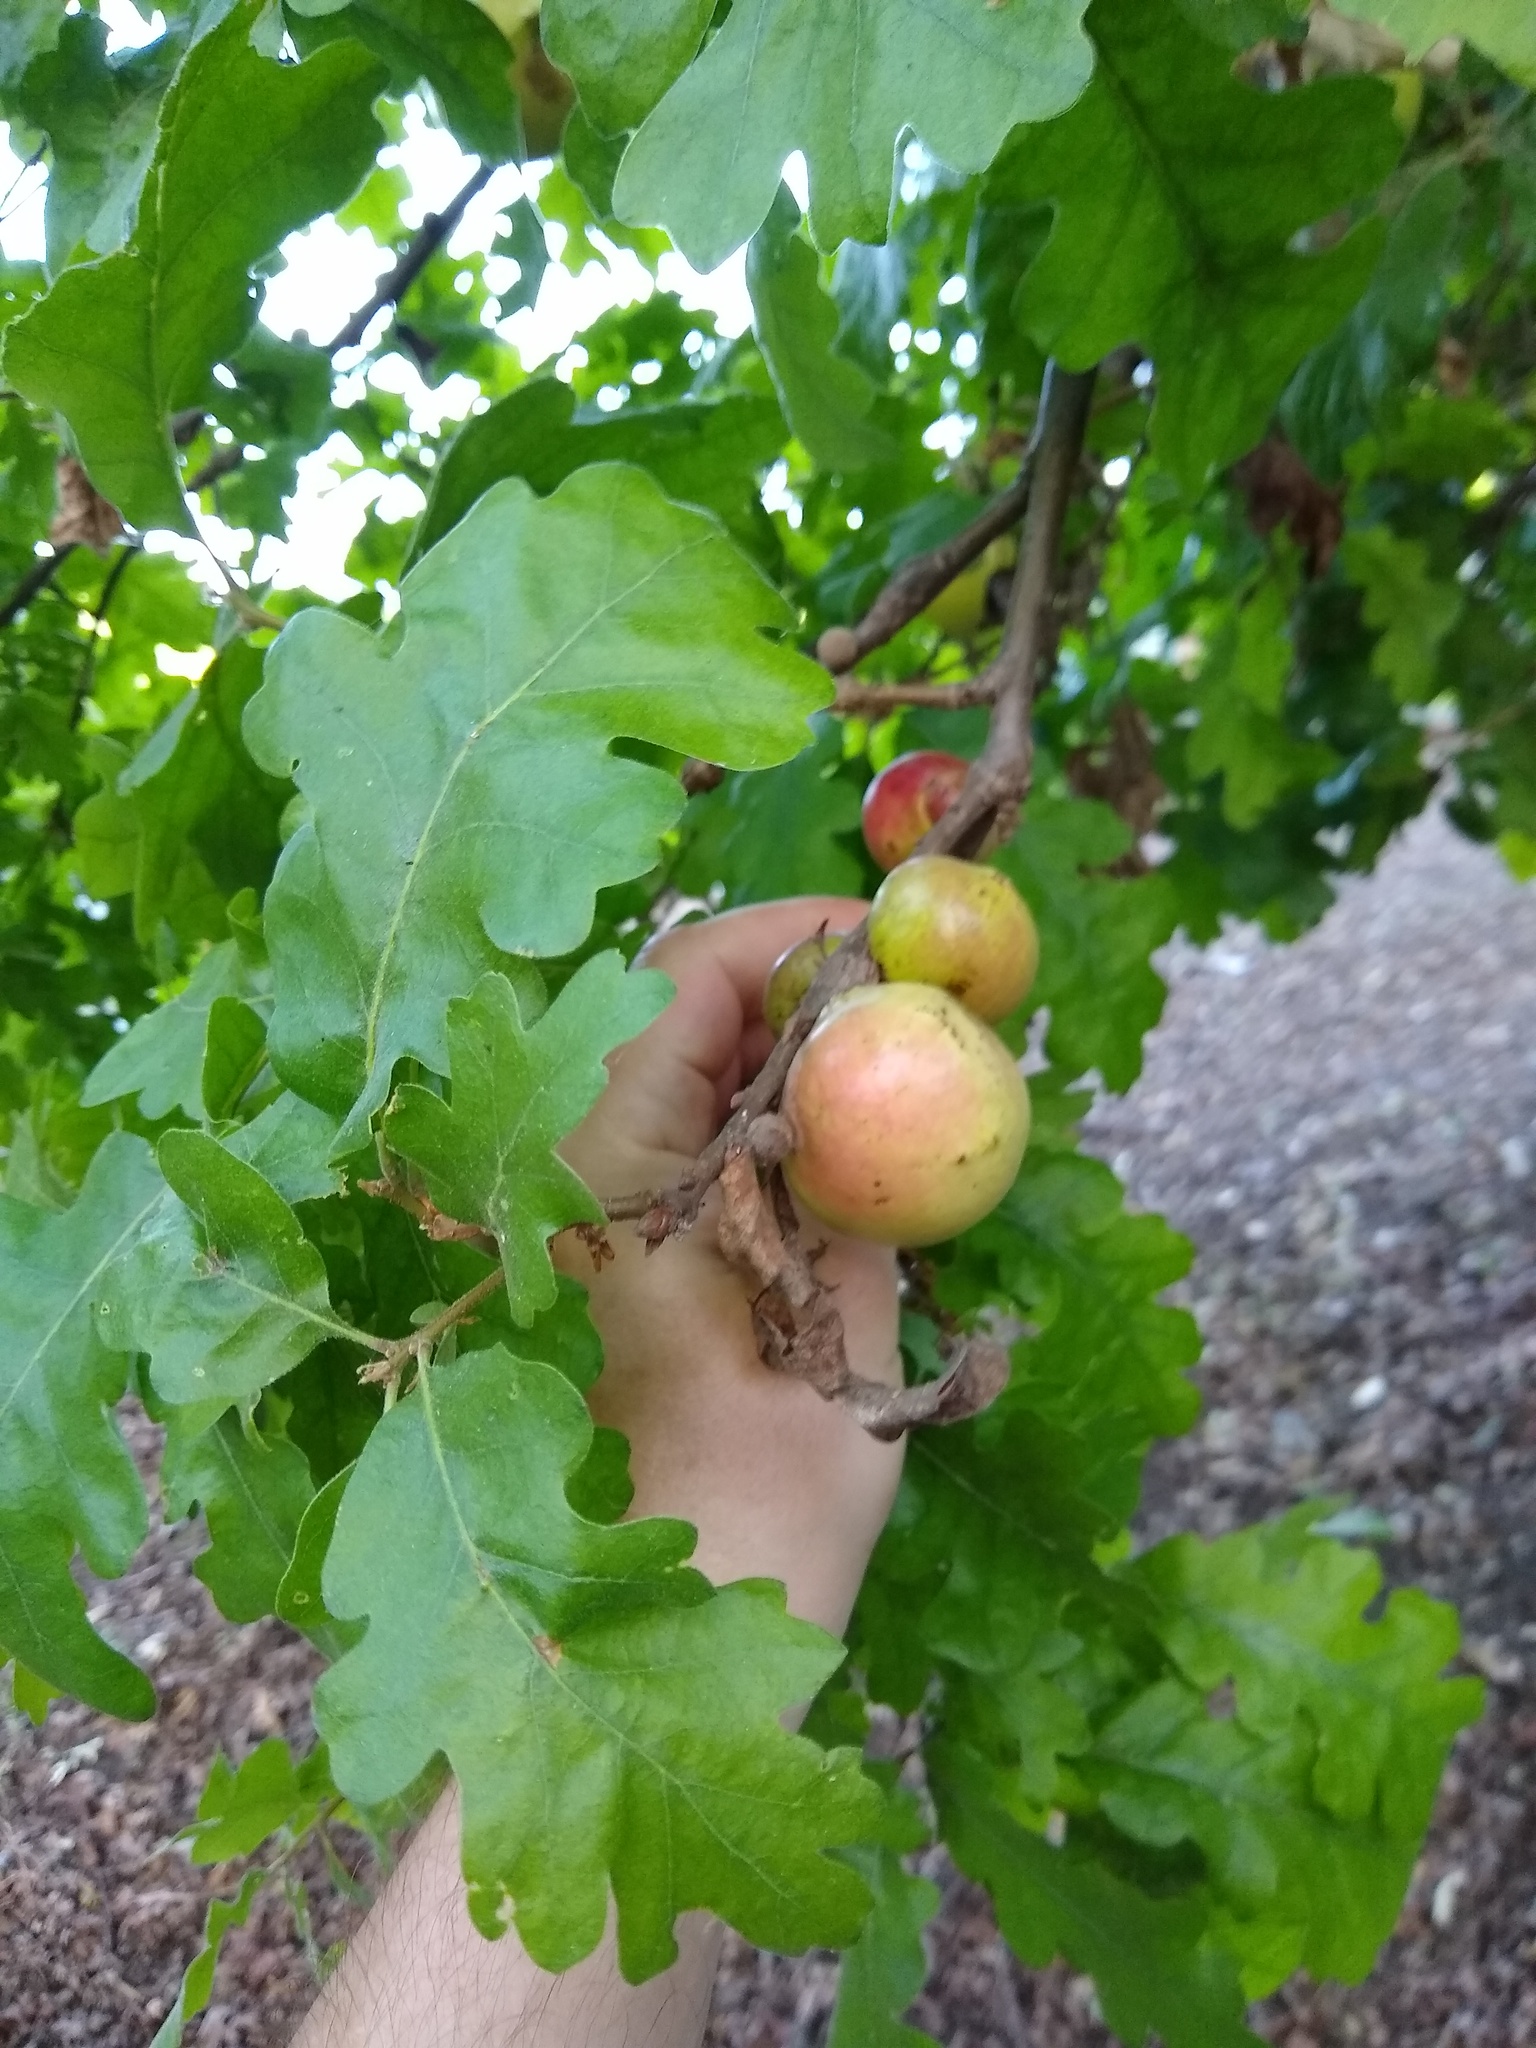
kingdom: Animalia
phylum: Arthropoda
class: Insecta
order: Hymenoptera
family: Cynipidae
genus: Andricus
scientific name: Andricus quercuscalifornicus
